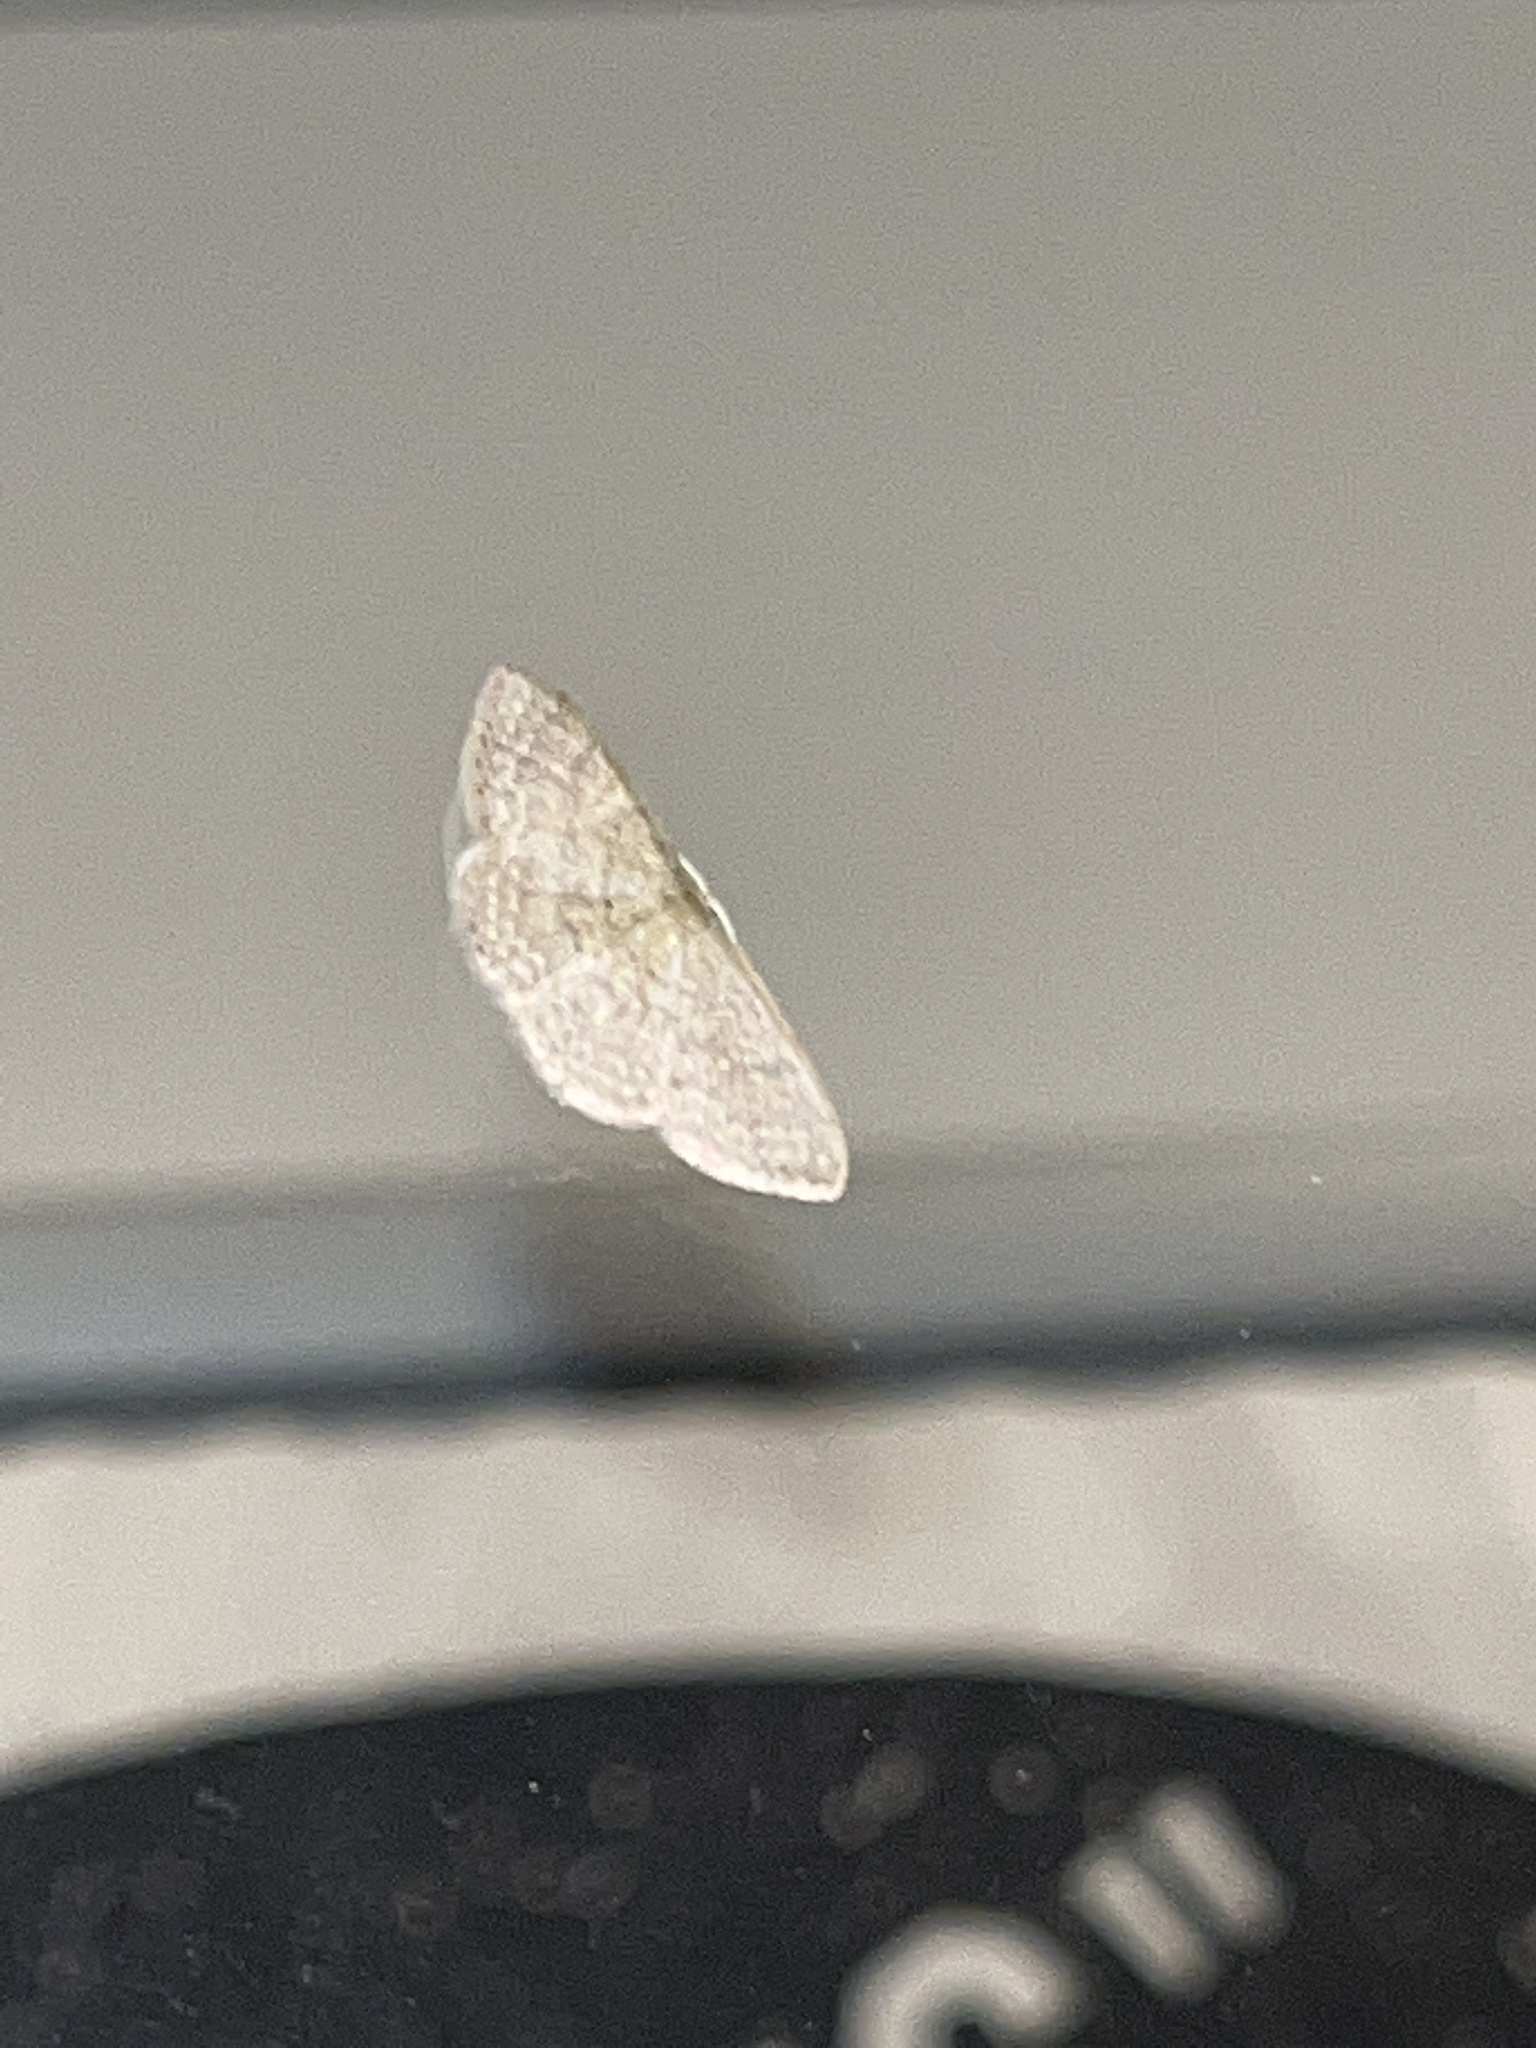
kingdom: Animalia
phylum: Arthropoda
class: Insecta
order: Lepidoptera
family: Geometridae
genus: Pleuroprucha
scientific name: Pleuroprucha insulsaria
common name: Common tan wave
